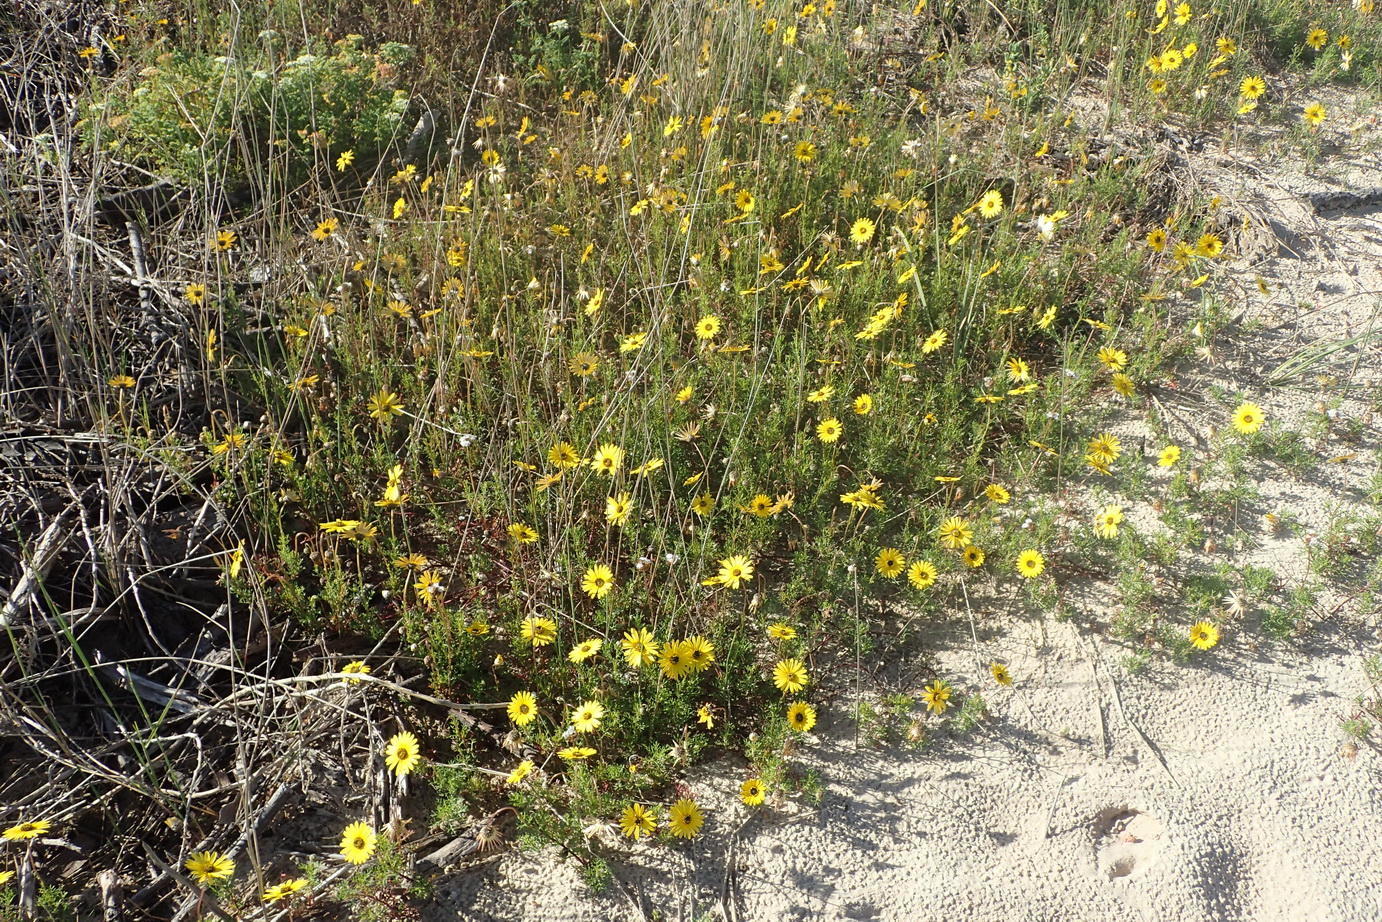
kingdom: Plantae
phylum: Tracheophyta
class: Magnoliopsida
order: Asterales
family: Asteraceae
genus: Ursinia
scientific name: Ursinia anthemoides
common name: Ursinia
